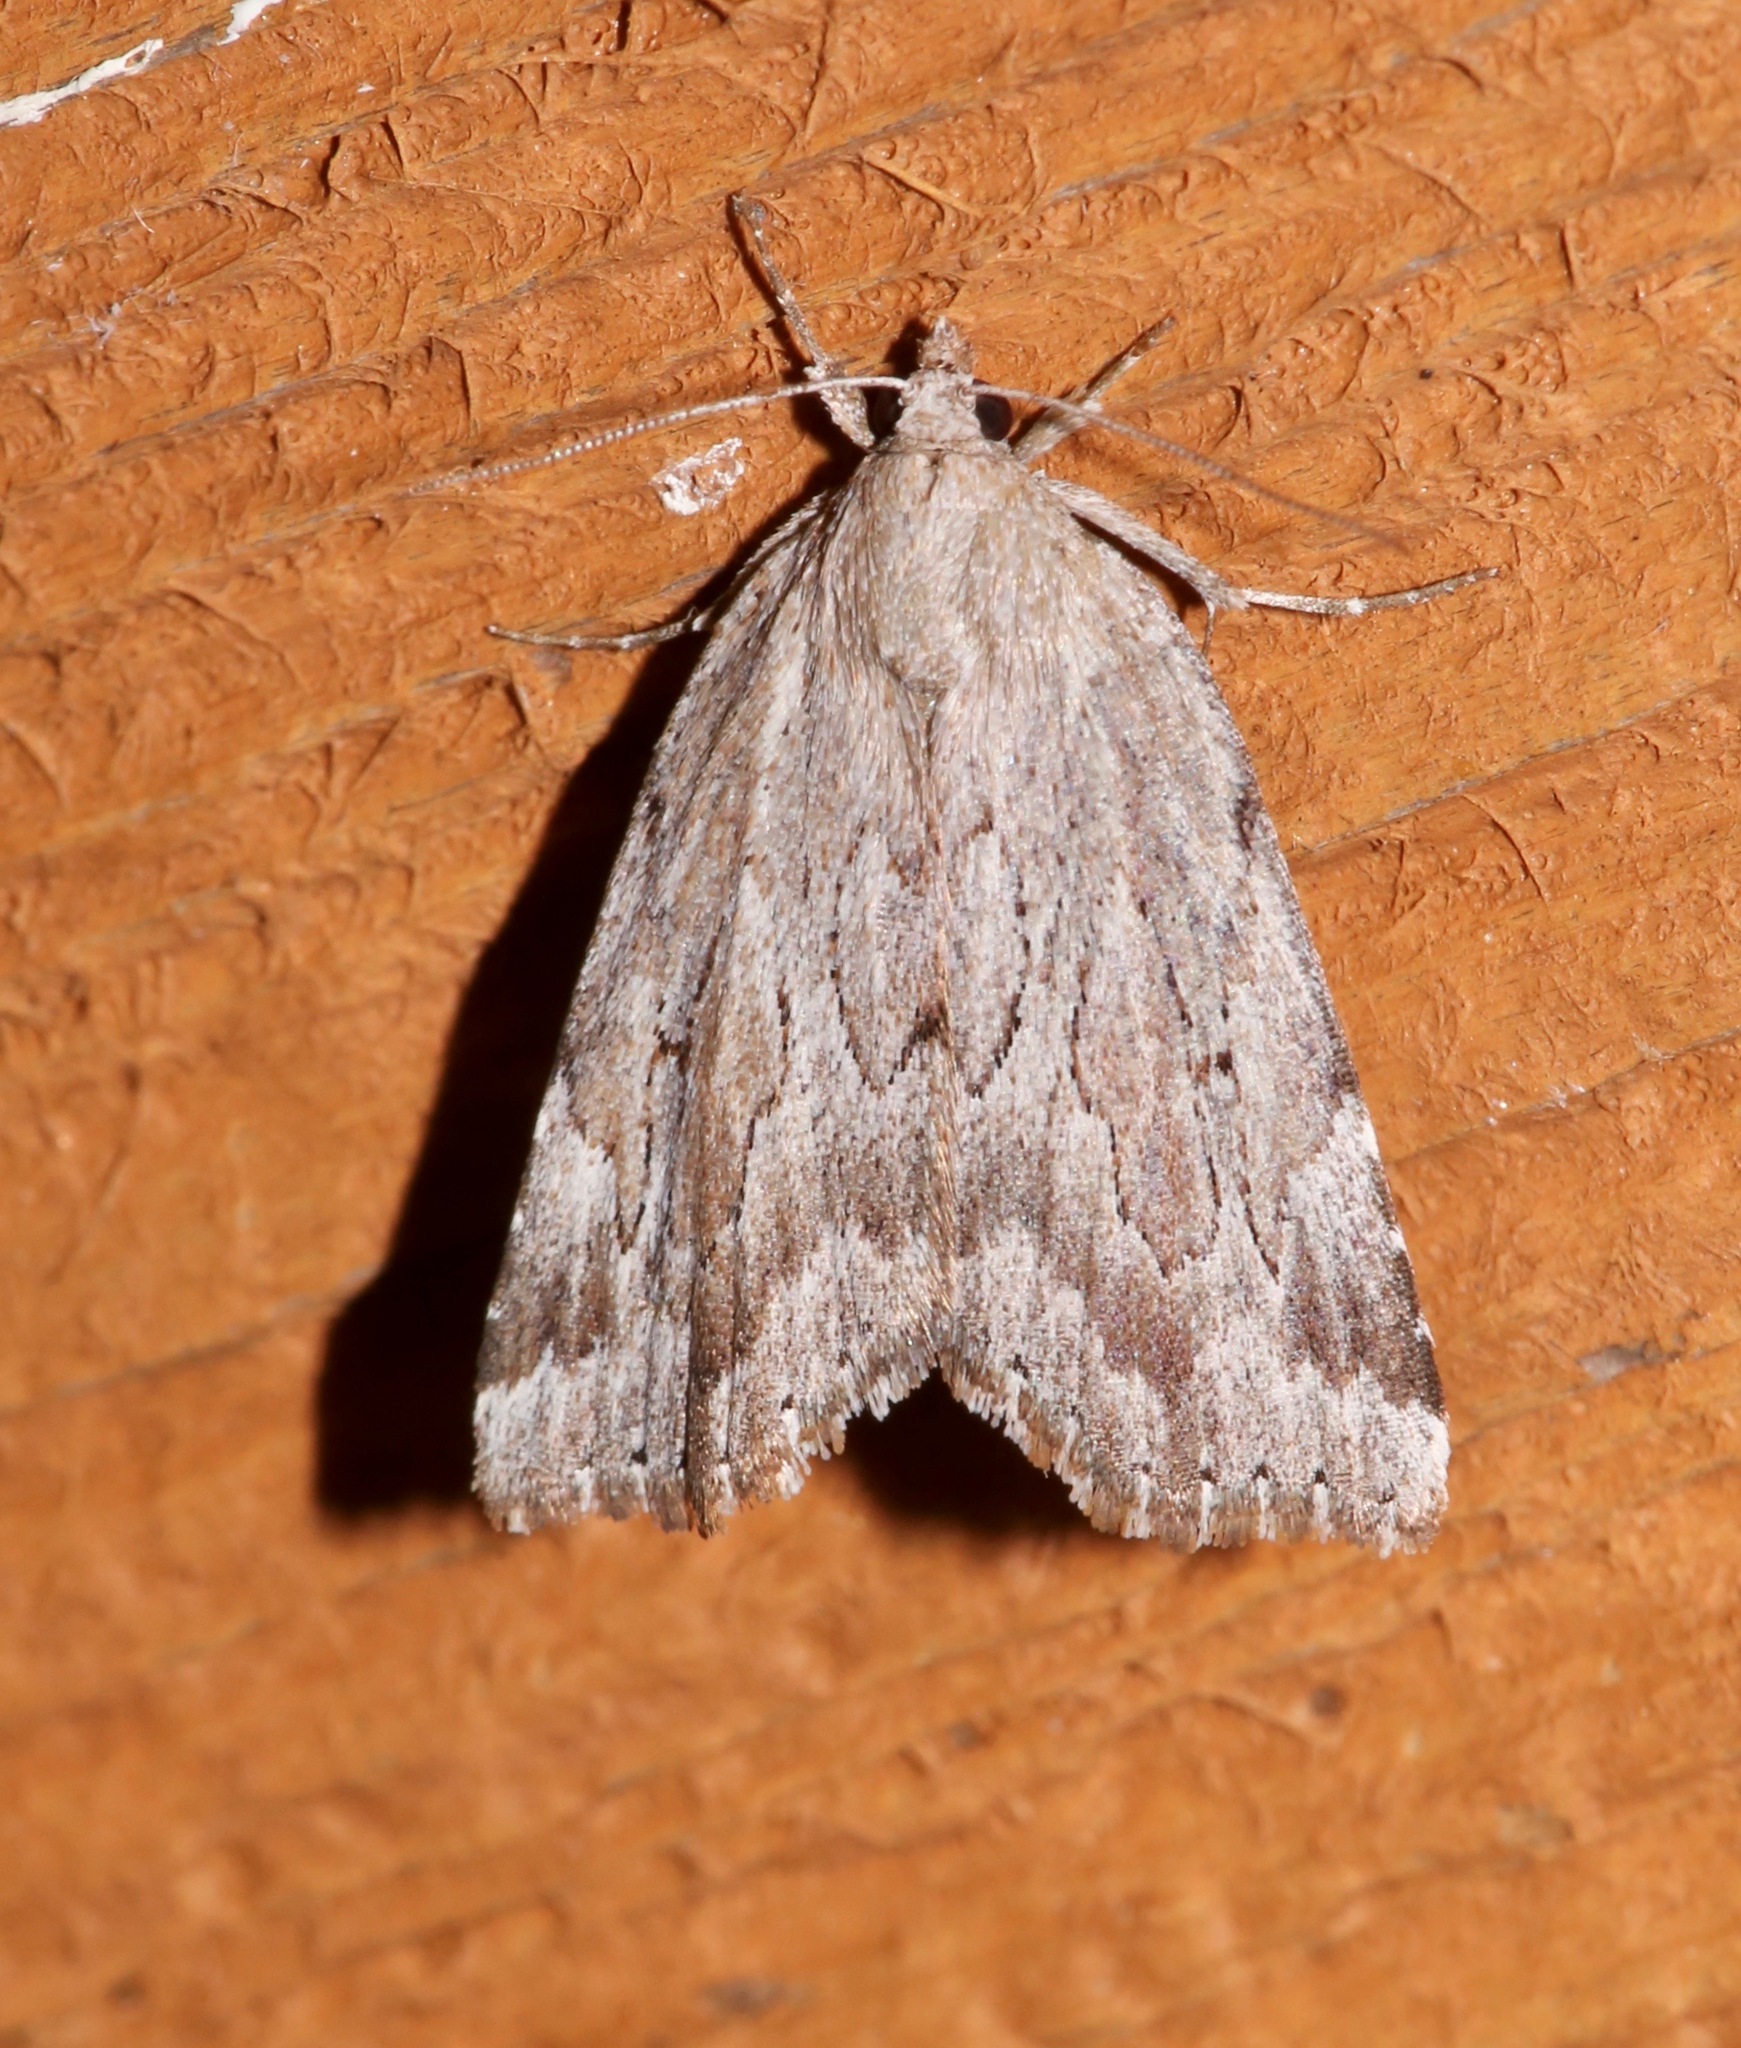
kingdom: Animalia
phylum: Arthropoda
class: Insecta
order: Lepidoptera
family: Erebidae
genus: Cutina
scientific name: Cutina albopunctella
